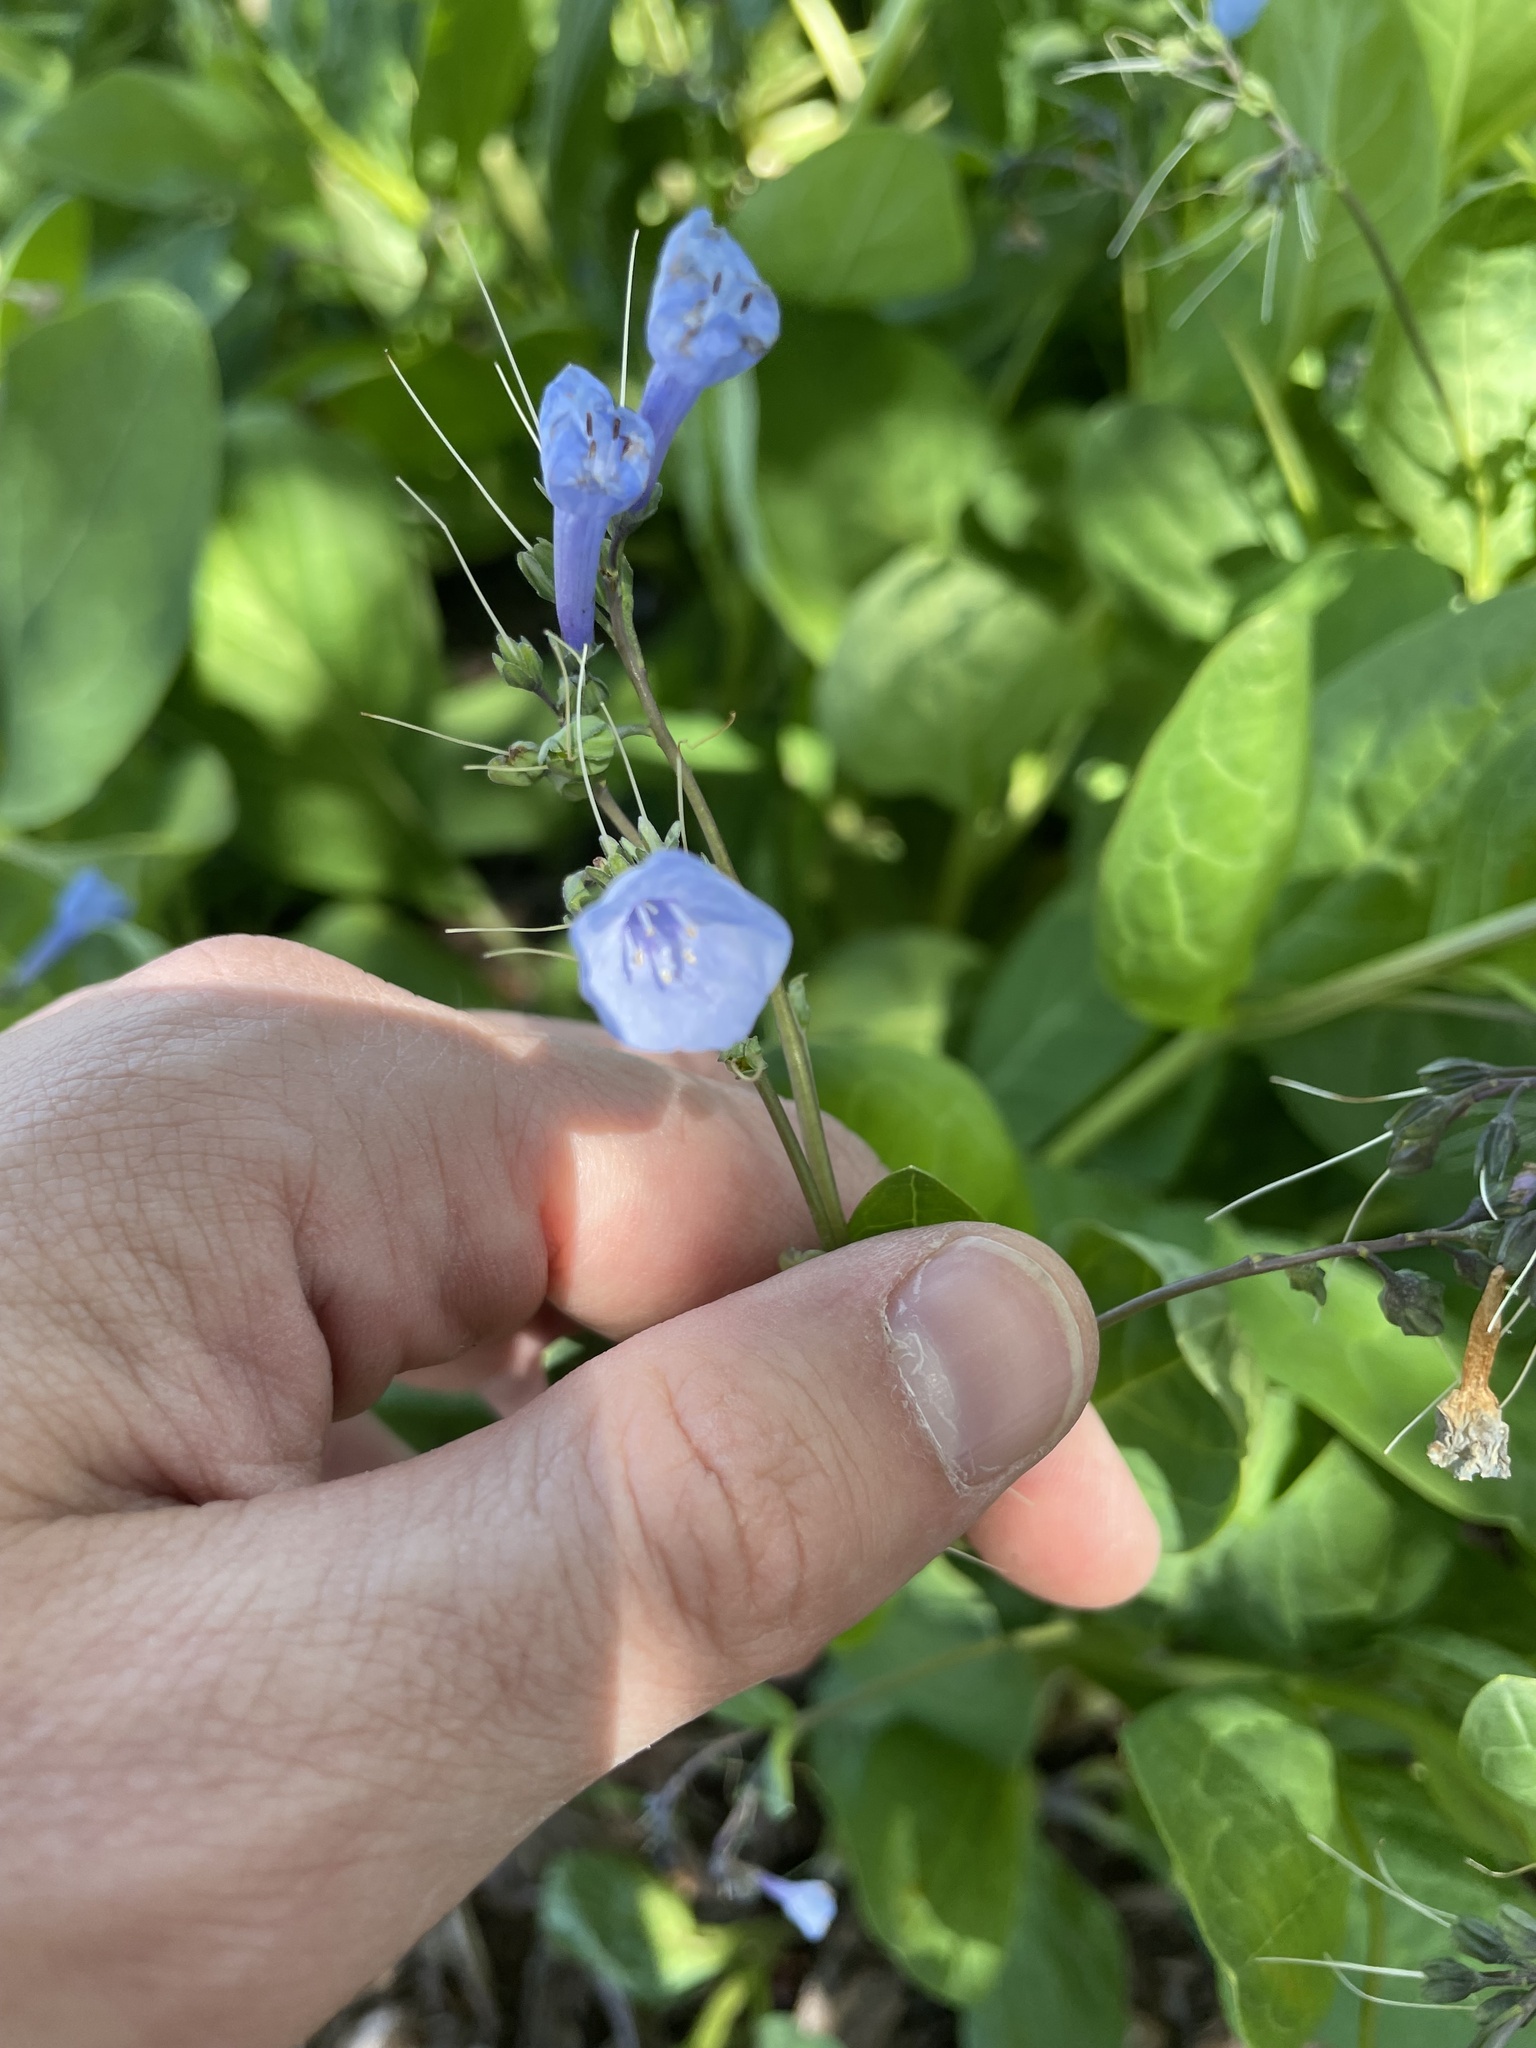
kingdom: Plantae
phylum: Tracheophyta
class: Magnoliopsida
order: Boraginales
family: Boraginaceae
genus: Mertensia
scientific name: Mertensia virginica
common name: Virginia bluebells
